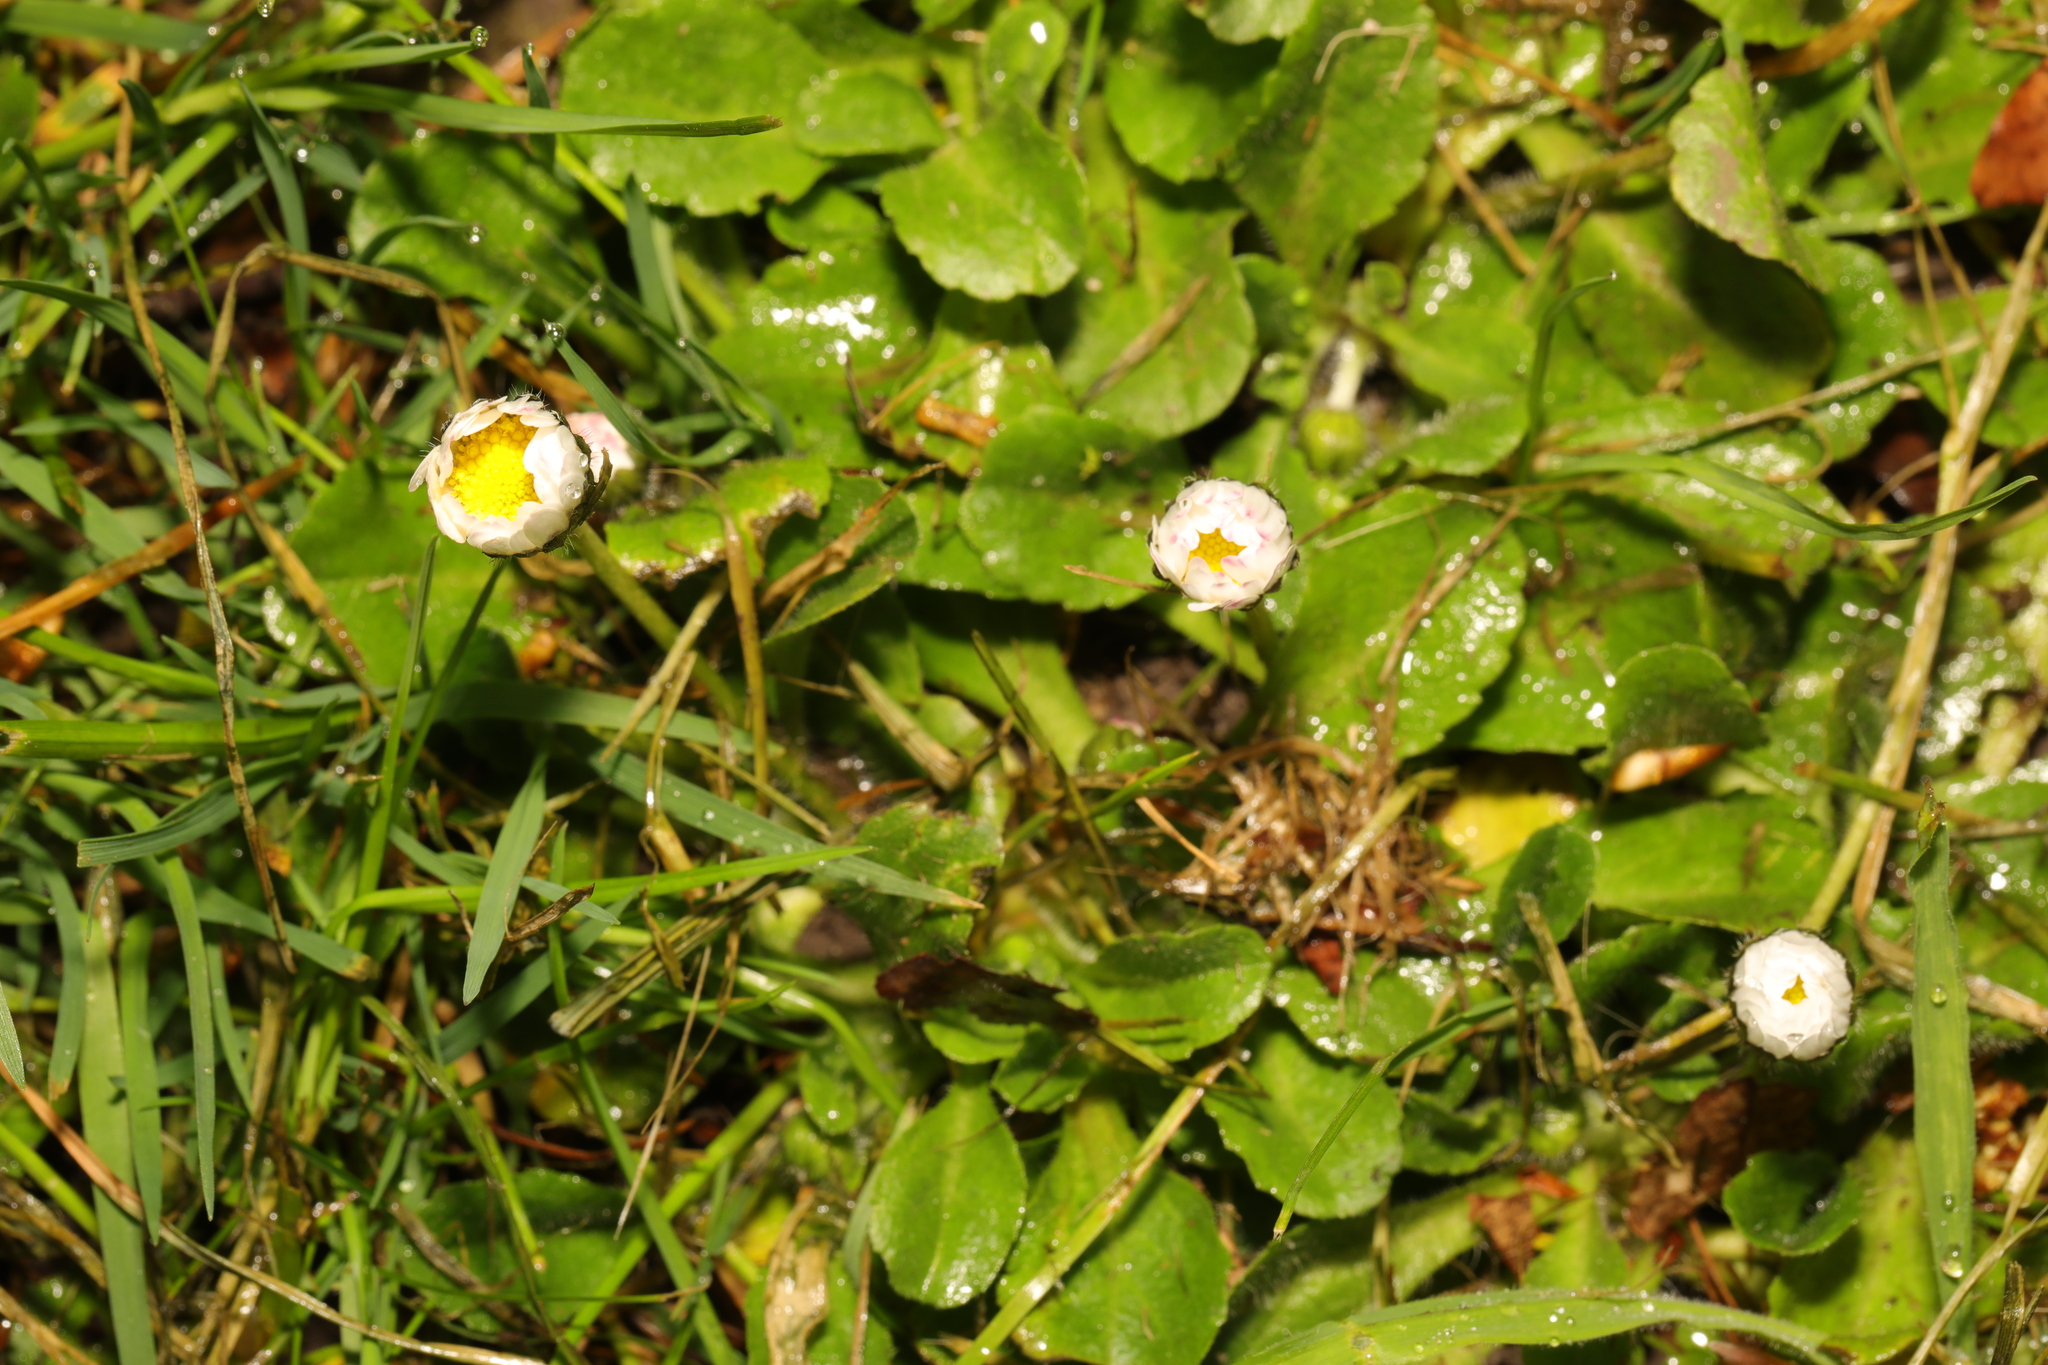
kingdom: Plantae
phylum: Tracheophyta
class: Magnoliopsida
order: Asterales
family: Asteraceae
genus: Bellis
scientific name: Bellis perennis
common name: Lawndaisy
